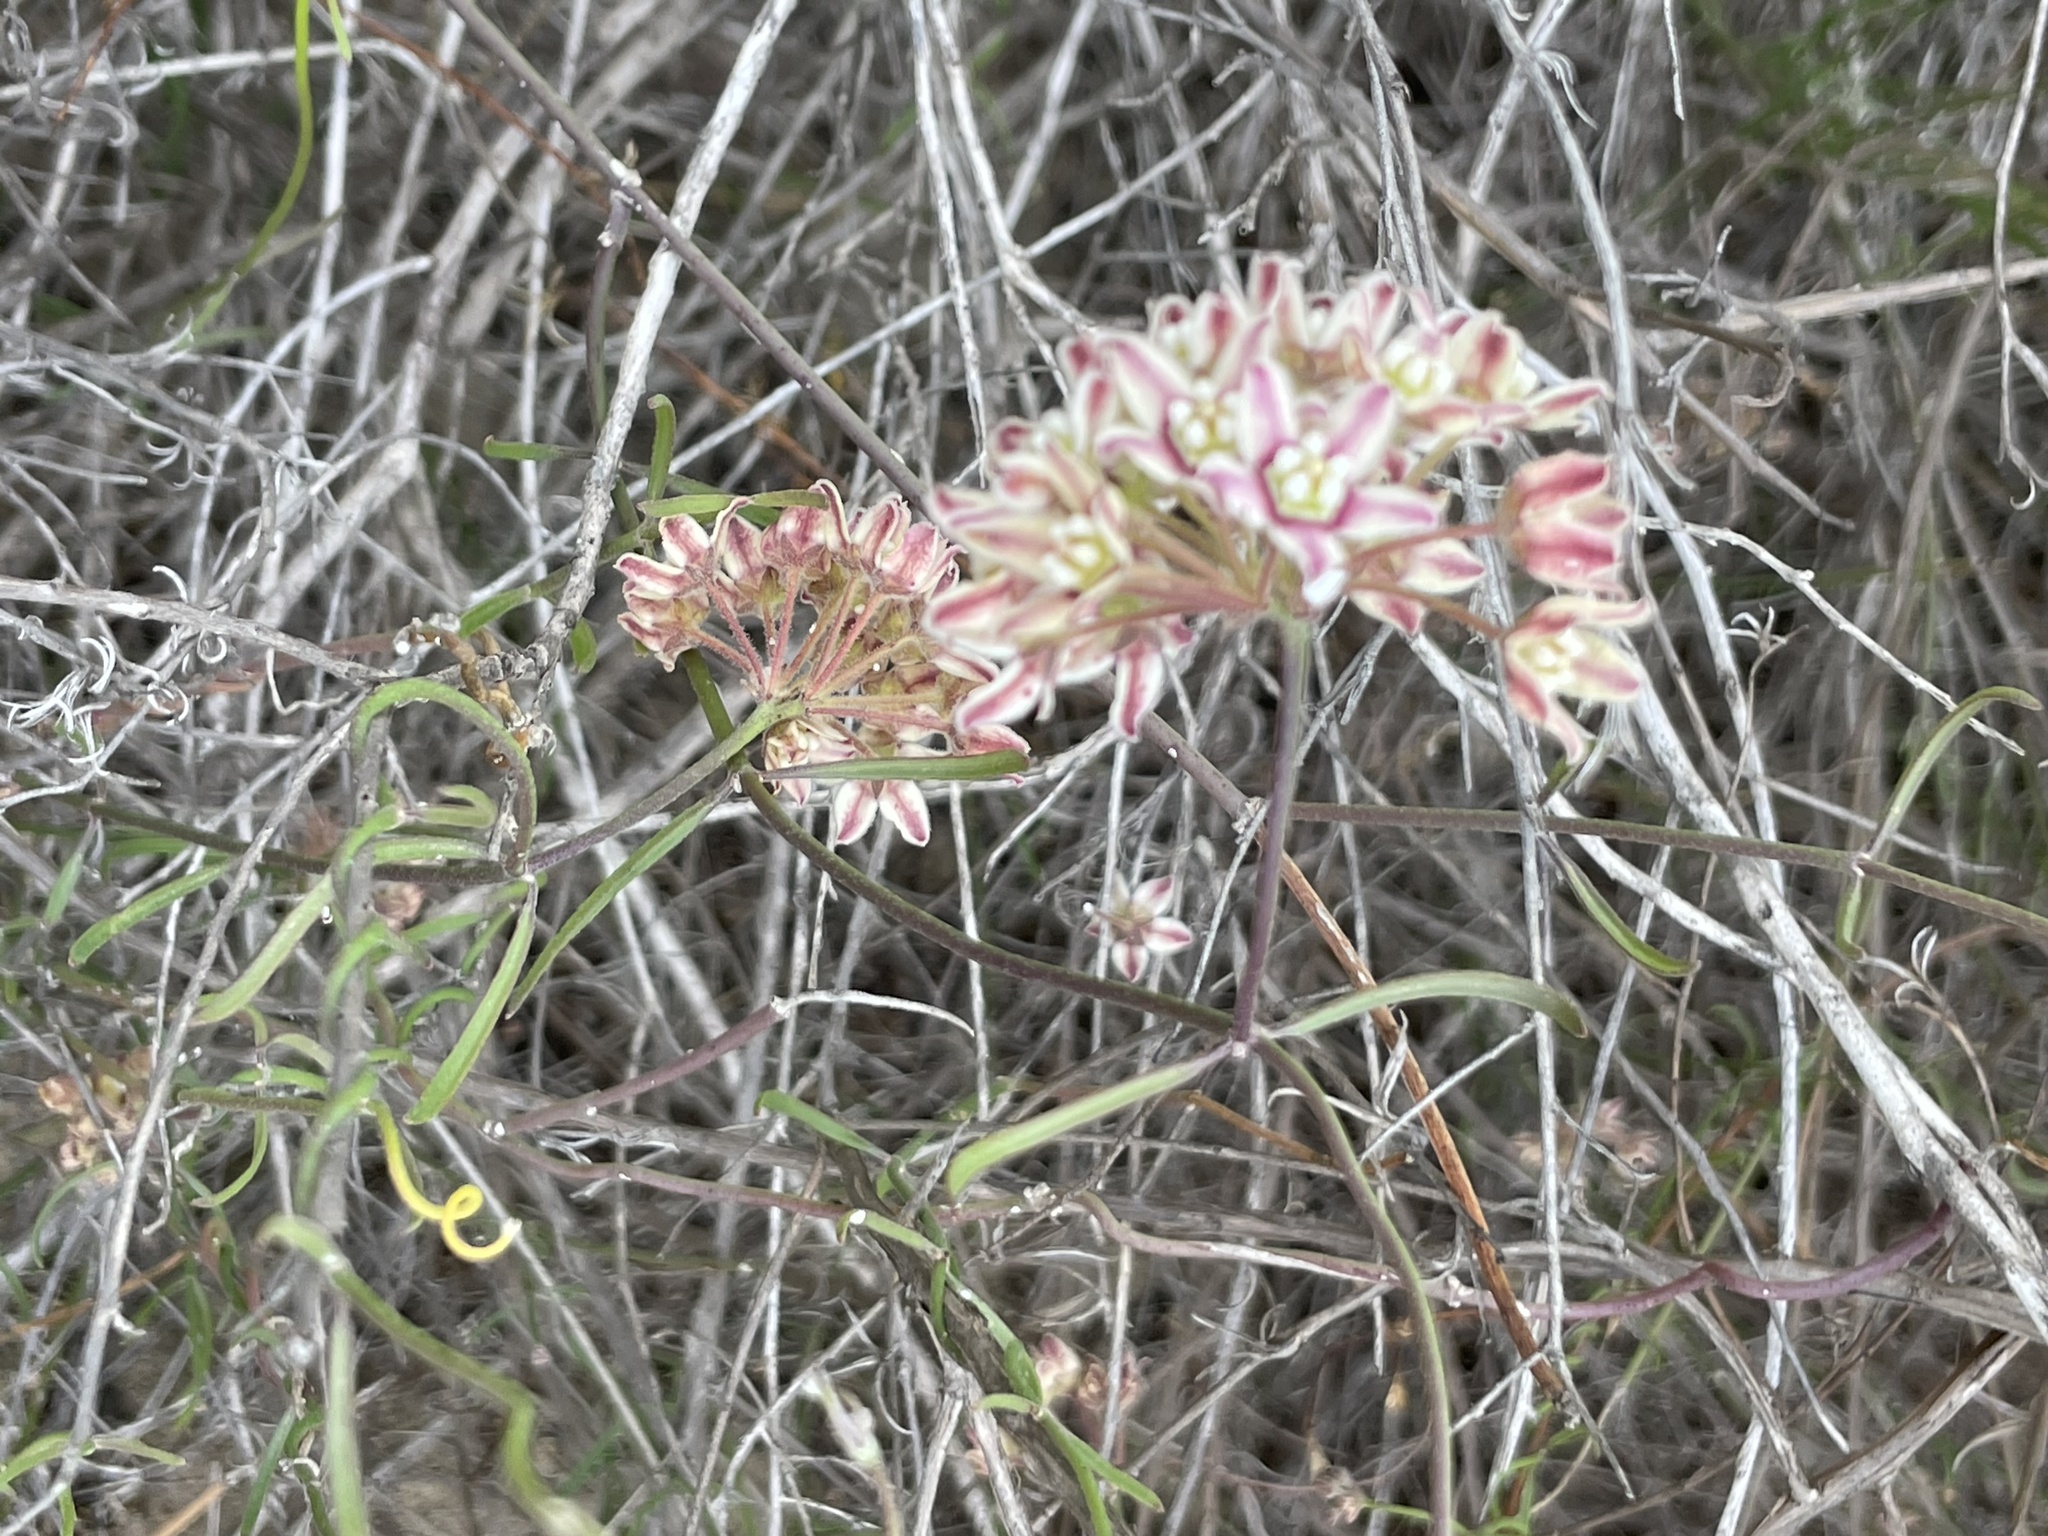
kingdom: Plantae
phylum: Tracheophyta
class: Magnoliopsida
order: Gentianales
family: Apocynaceae
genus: Funastrum
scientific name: Funastrum arenarium
